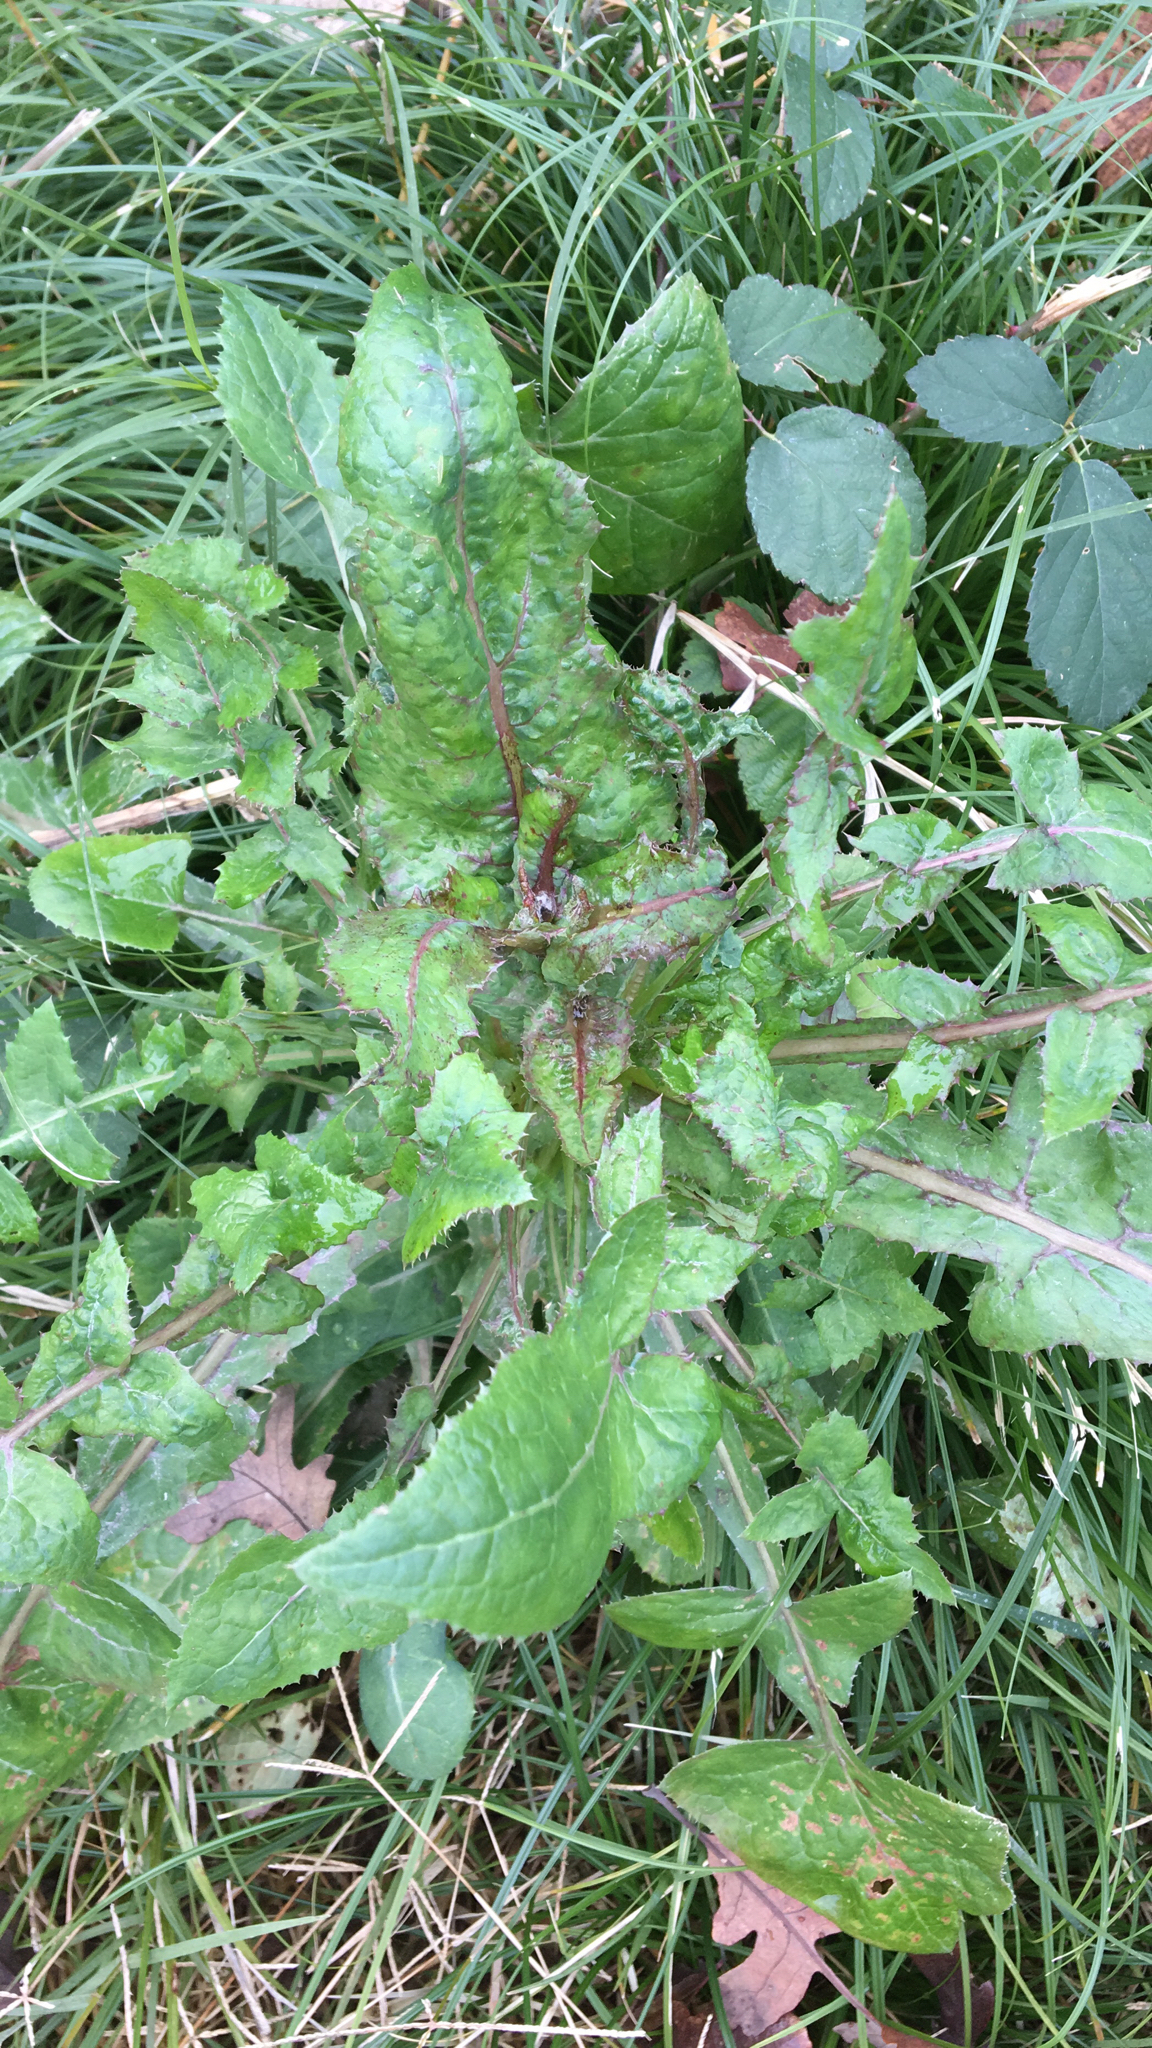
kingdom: Plantae
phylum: Tracheophyta
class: Magnoliopsida
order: Asterales
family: Asteraceae
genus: Sonchus
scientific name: Sonchus oleraceus
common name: Common sowthistle
